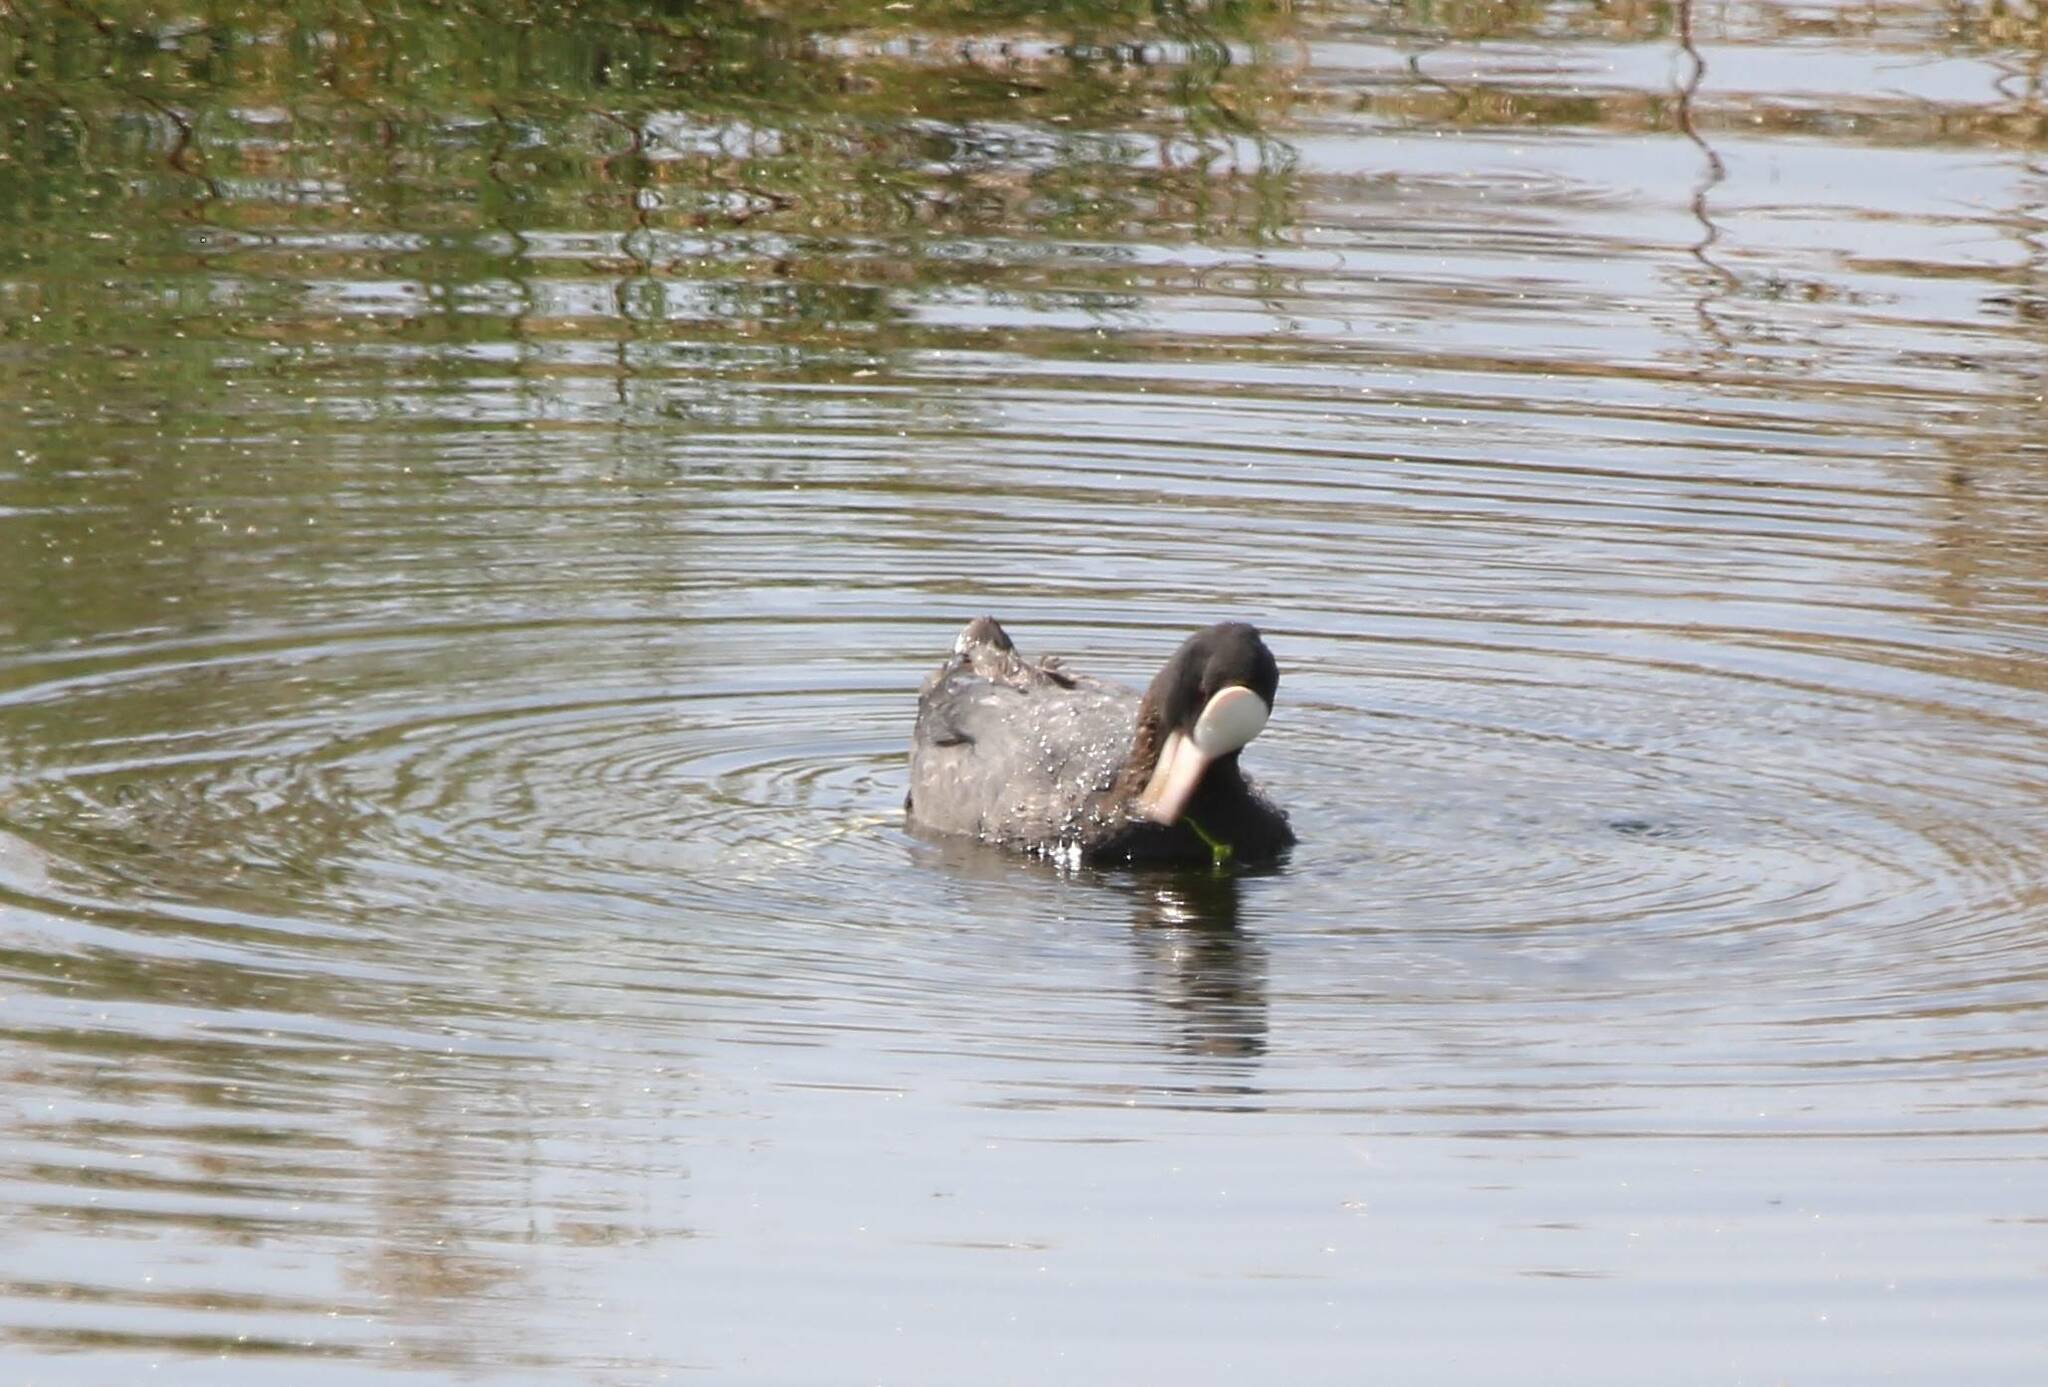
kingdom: Animalia
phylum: Chordata
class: Aves
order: Gruiformes
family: Rallidae
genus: Fulica
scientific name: Fulica atra
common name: Eurasian coot
